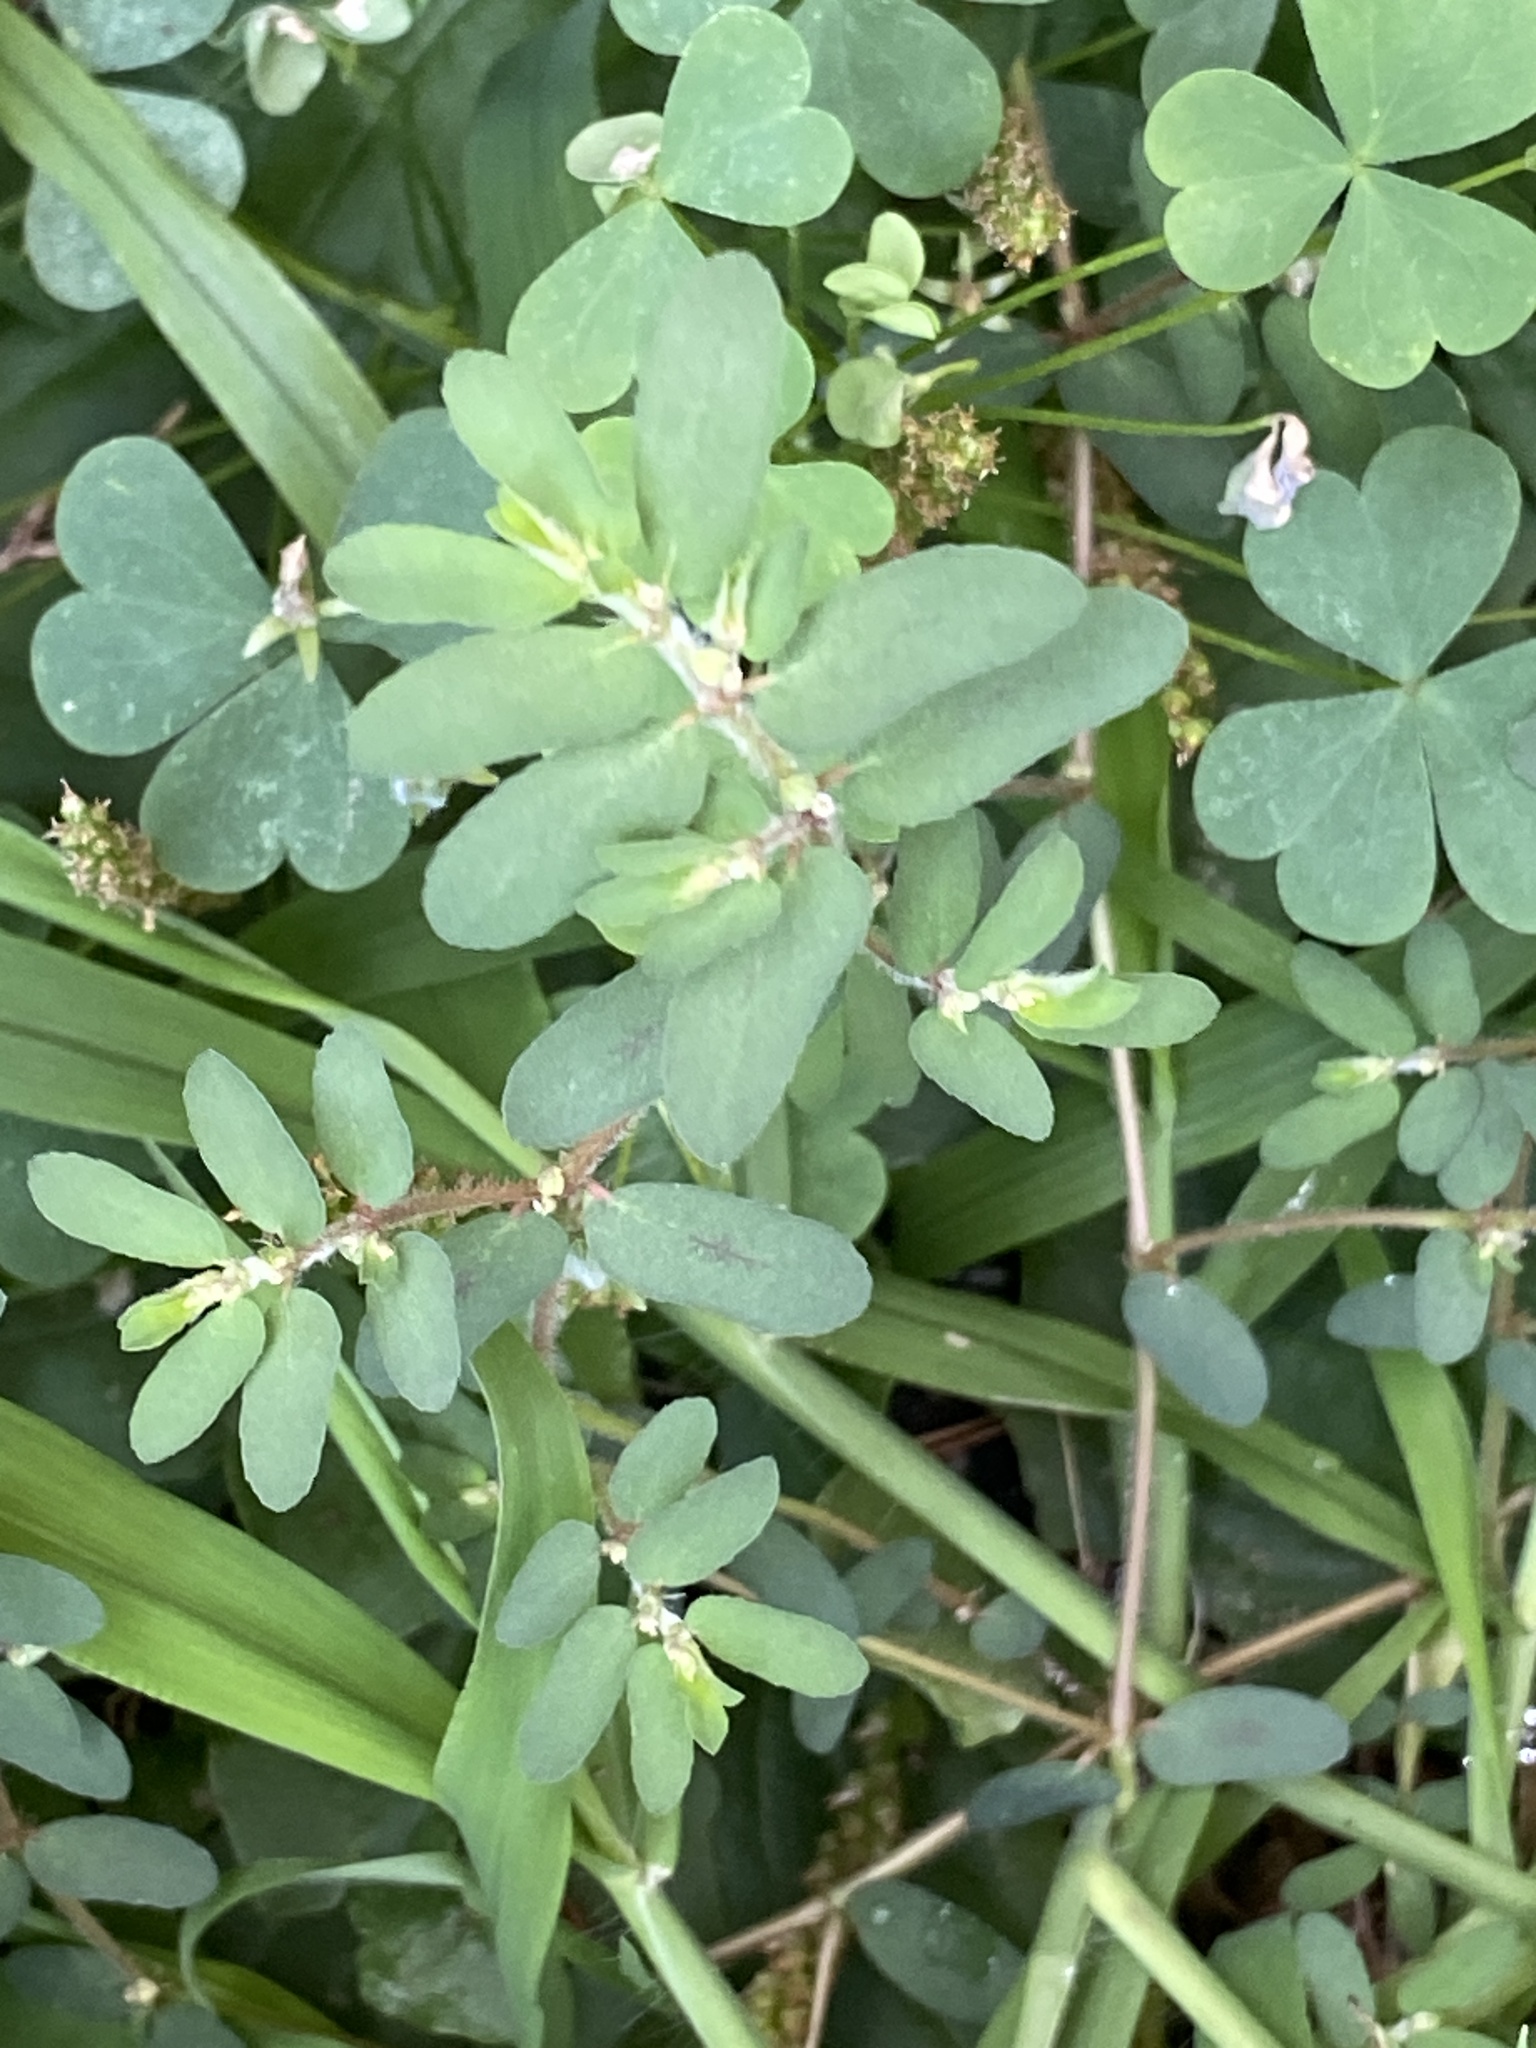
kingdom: Plantae
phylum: Tracheophyta
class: Magnoliopsida
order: Malpighiales
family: Euphorbiaceae
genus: Euphorbia
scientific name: Euphorbia maculata
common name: Spotted spurge
